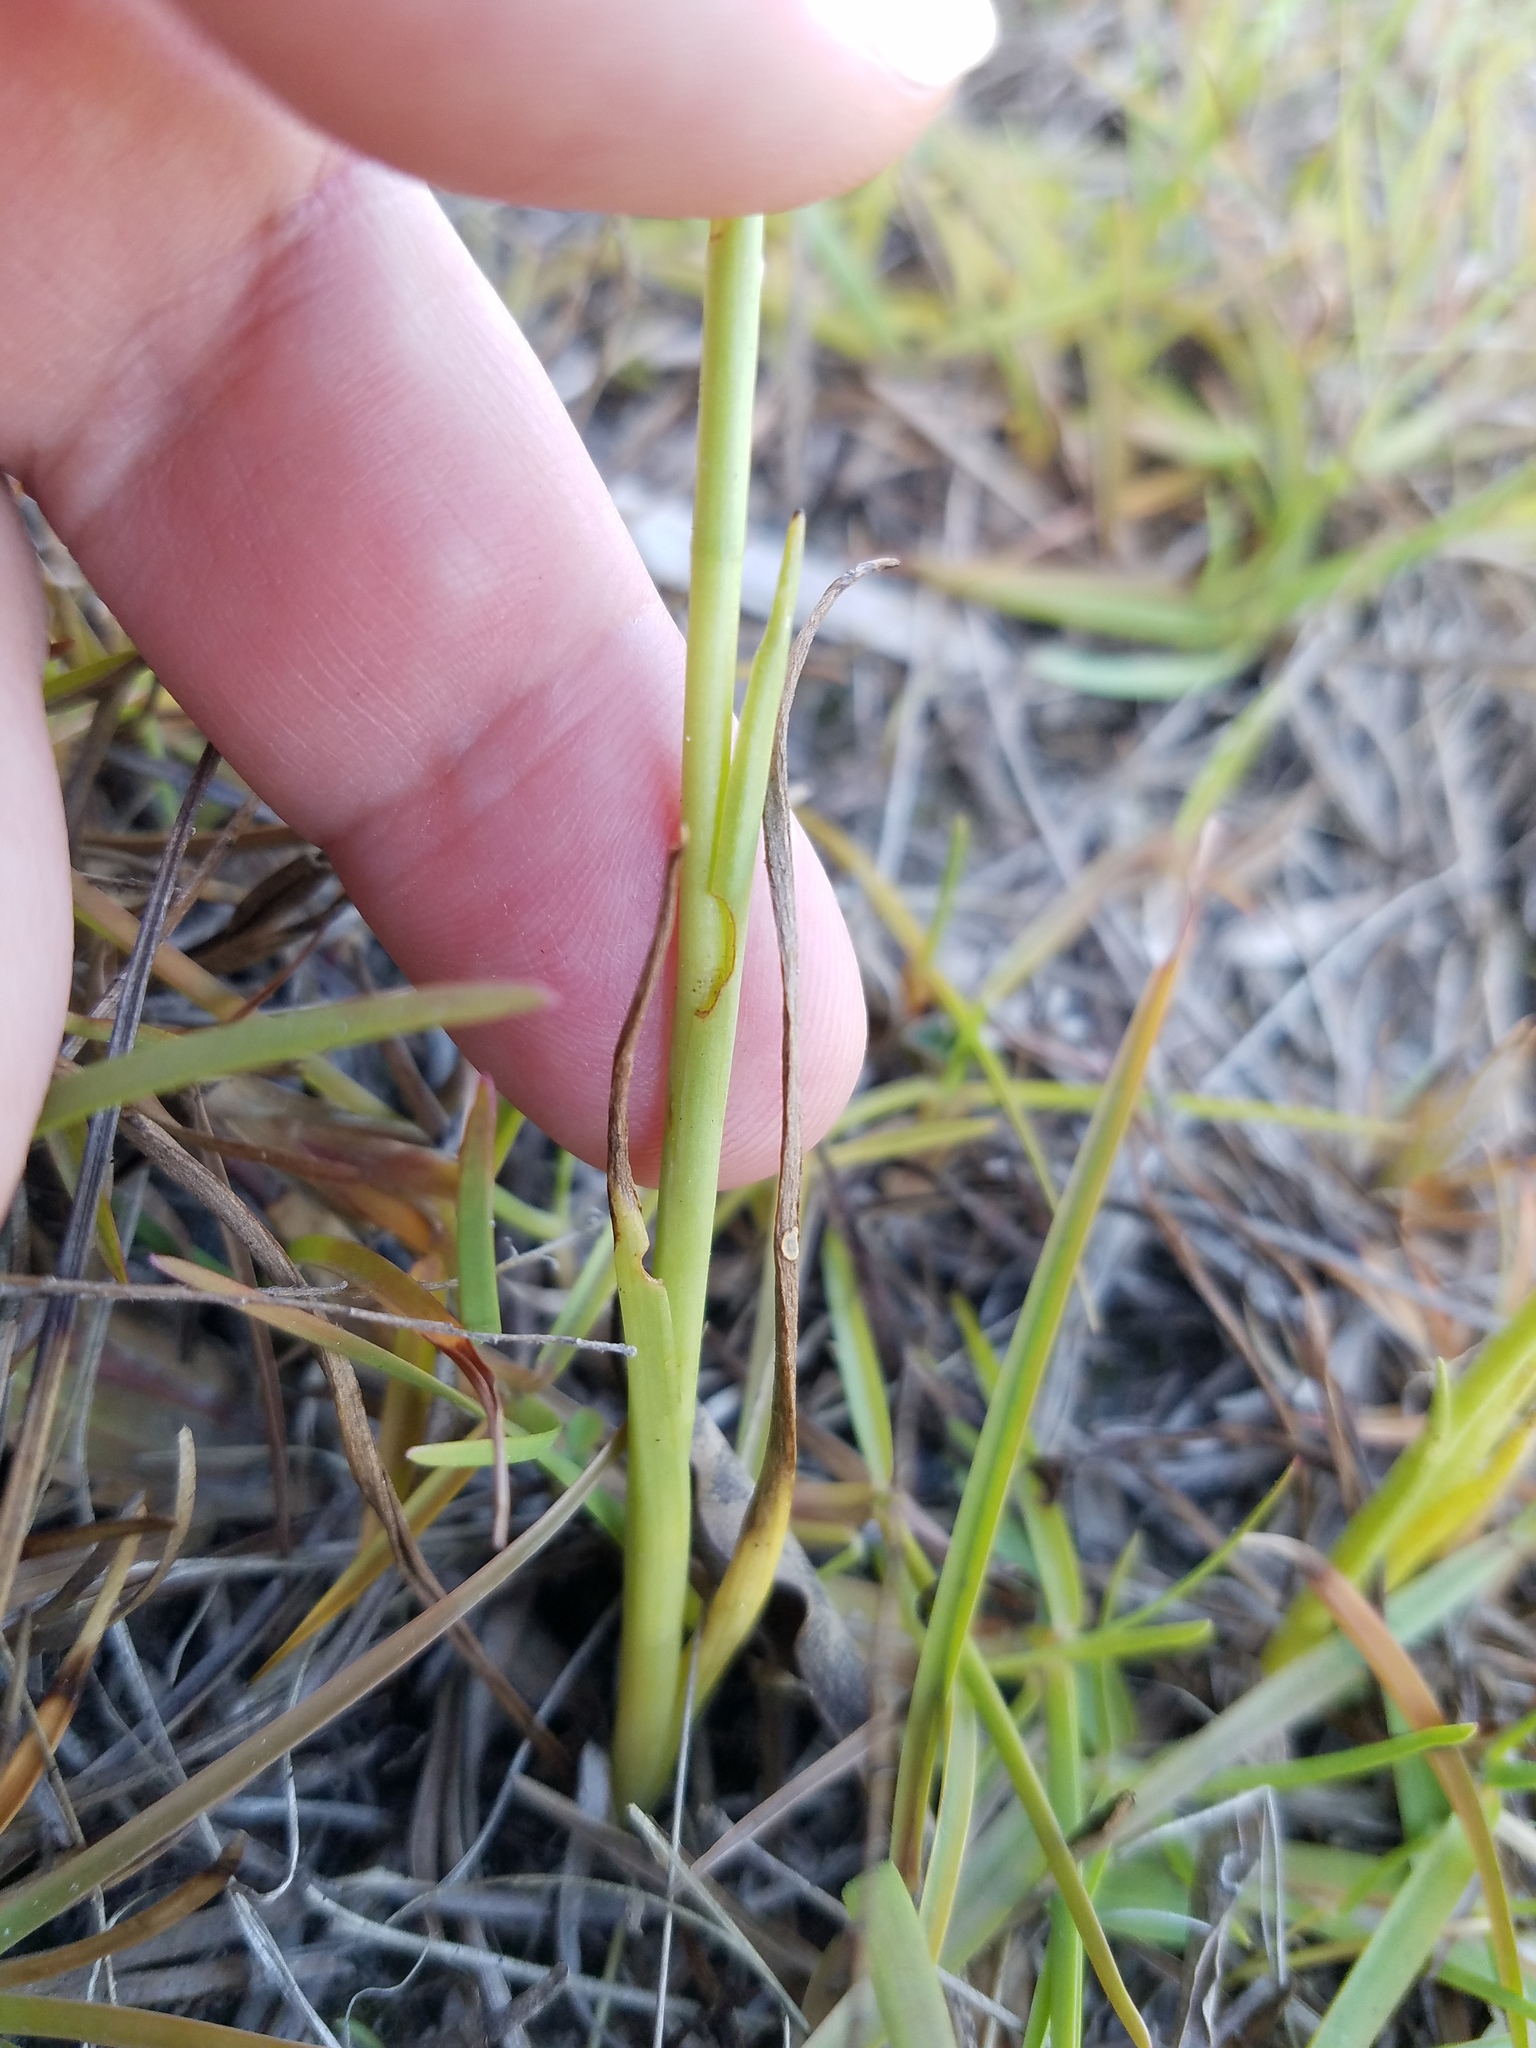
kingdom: Plantae
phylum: Tracheophyta
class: Liliopsida
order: Asparagales
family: Orchidaceae
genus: Spiranthes
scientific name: Spiranthes vernalis
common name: Spring ladies'-tresses
